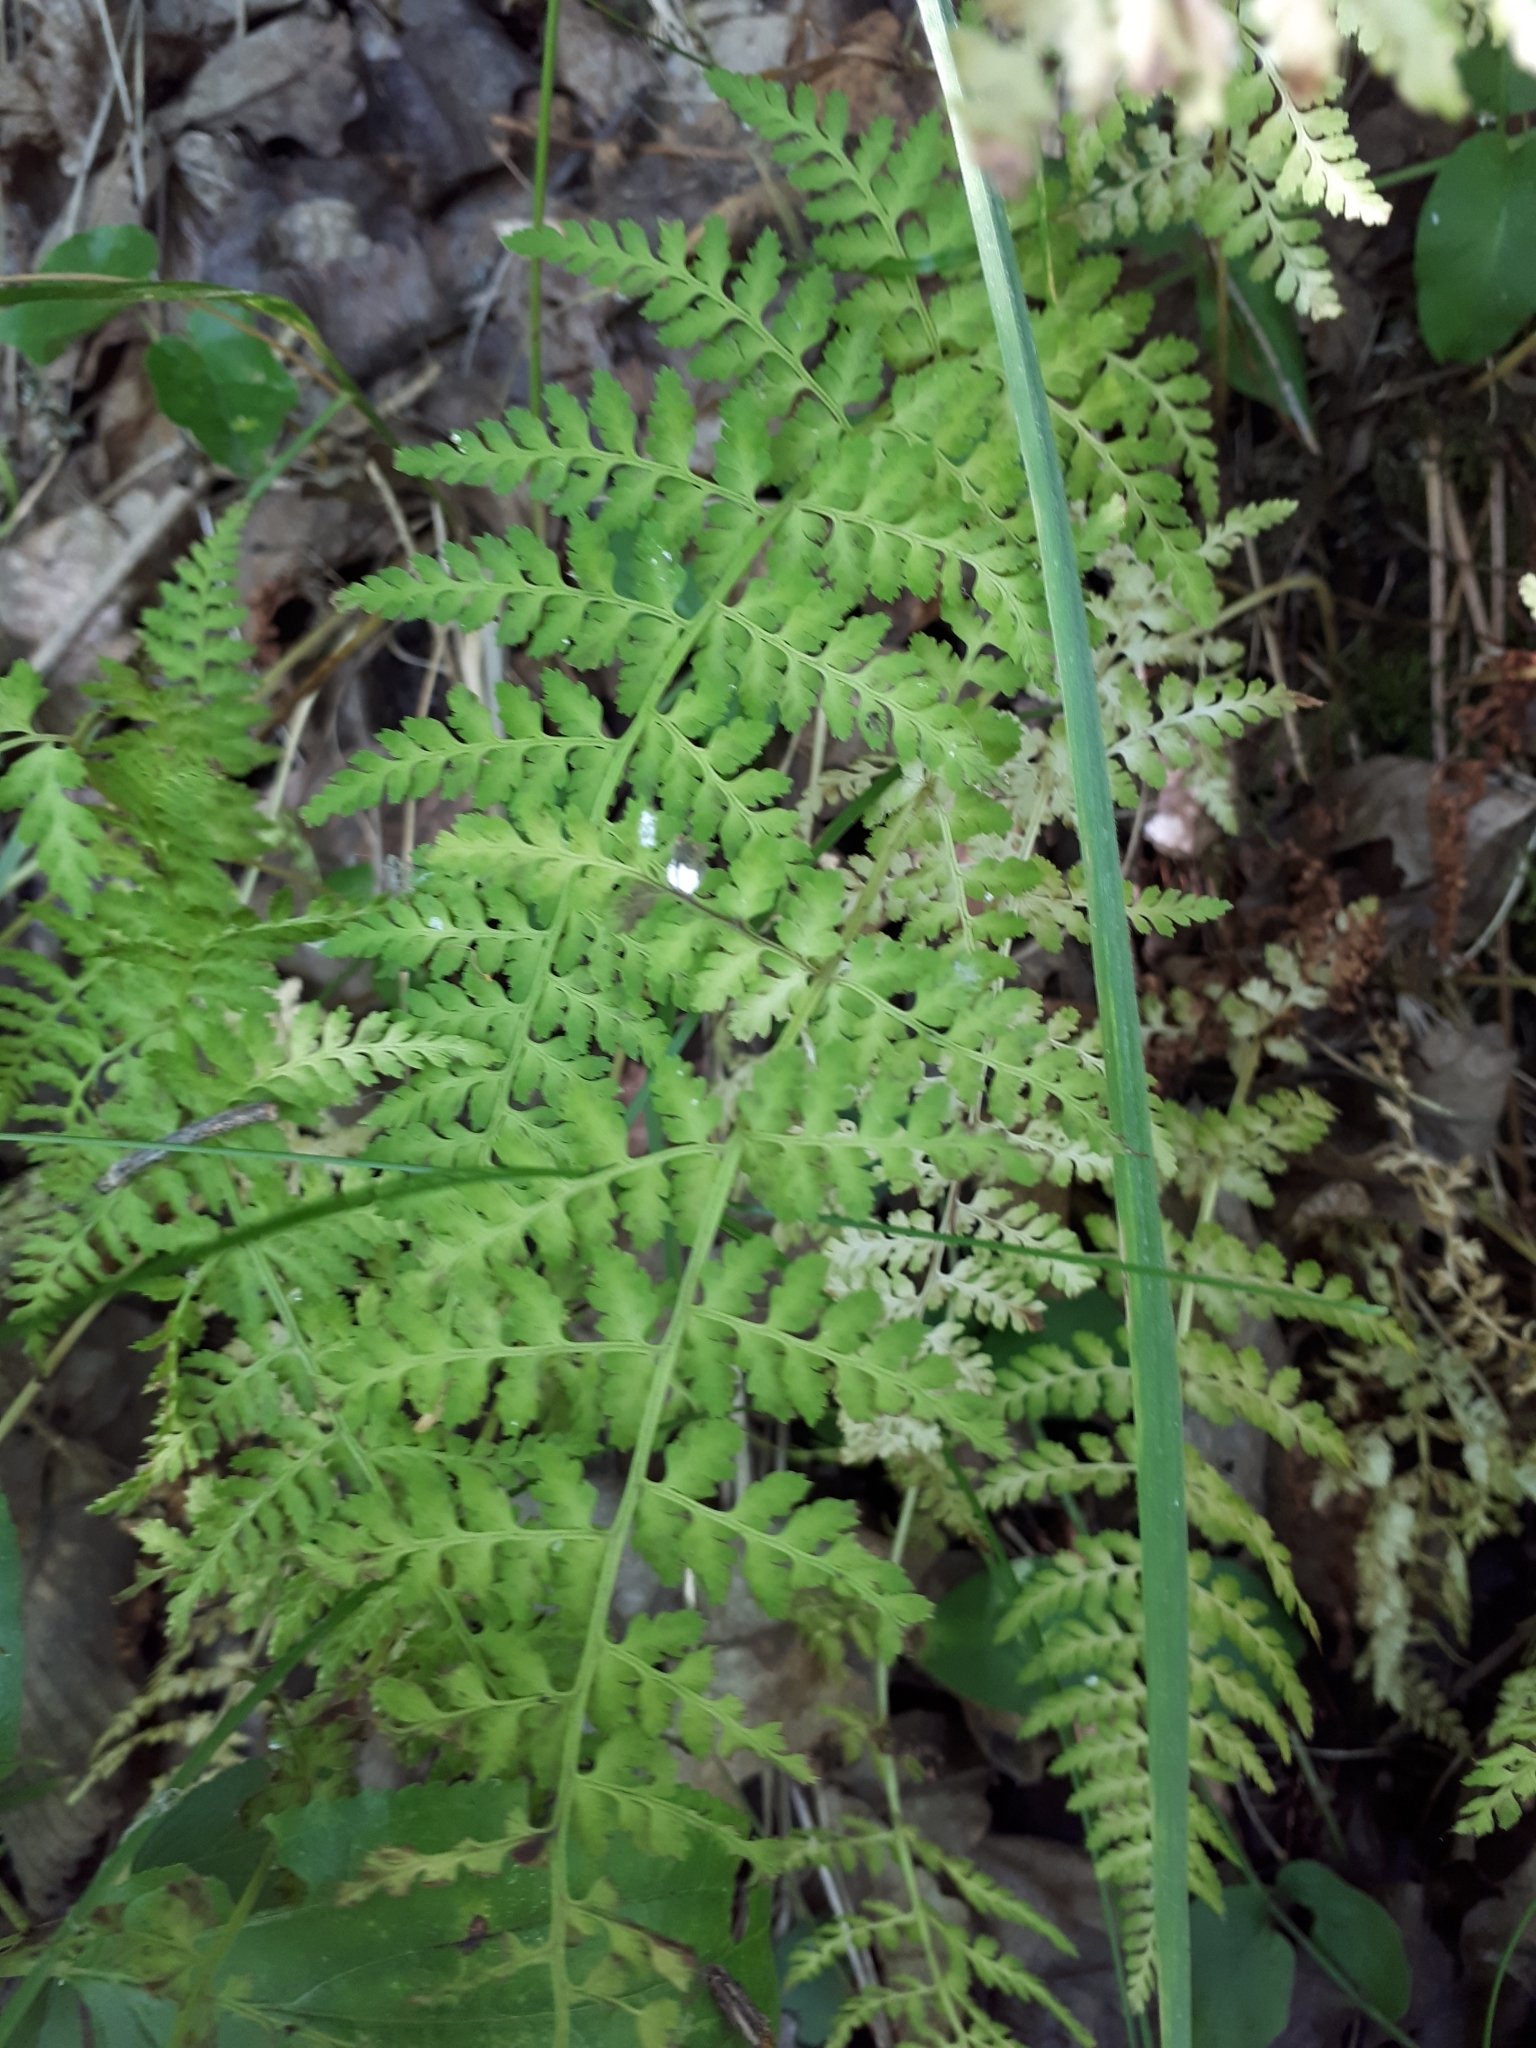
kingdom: Plantae
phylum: Tracheophyta
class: Polypodiopsida
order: Polypodiales
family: Cystopteridaceae
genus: Cystopteris
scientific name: Cystopteris fragilis
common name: Brittle bladder fern
